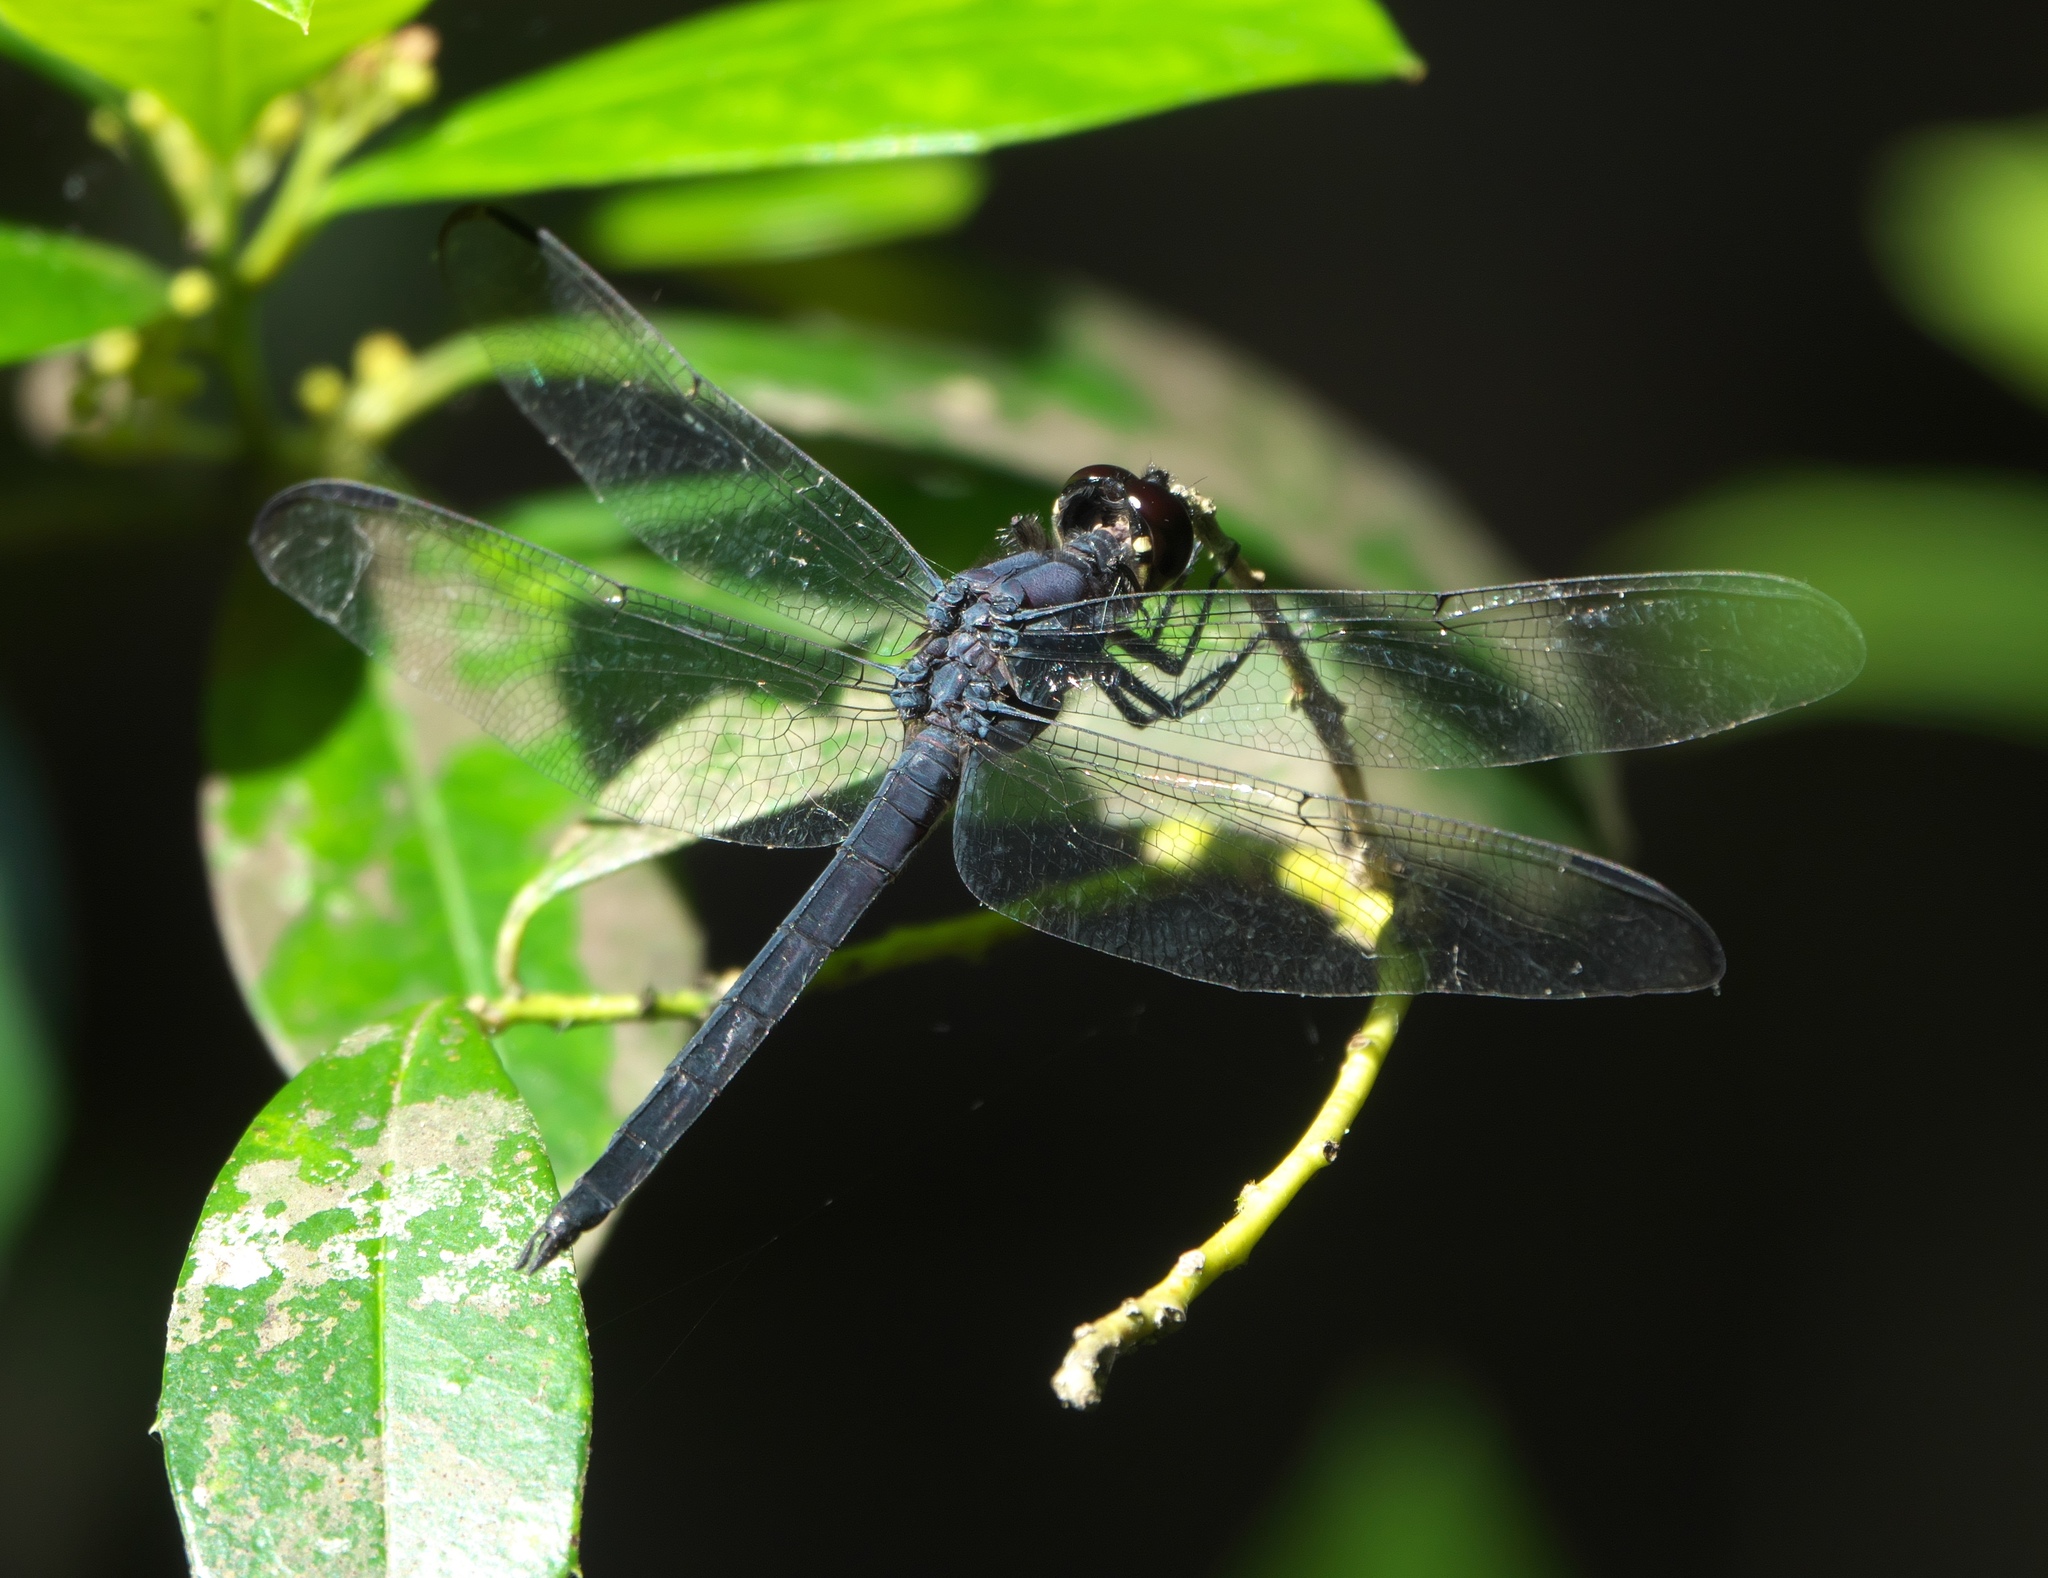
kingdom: Animalia
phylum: Arthropoda
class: Insecta
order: Odonata
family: Libellulidae
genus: Libellula
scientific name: Libellula incesta
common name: Slaty skimmer
